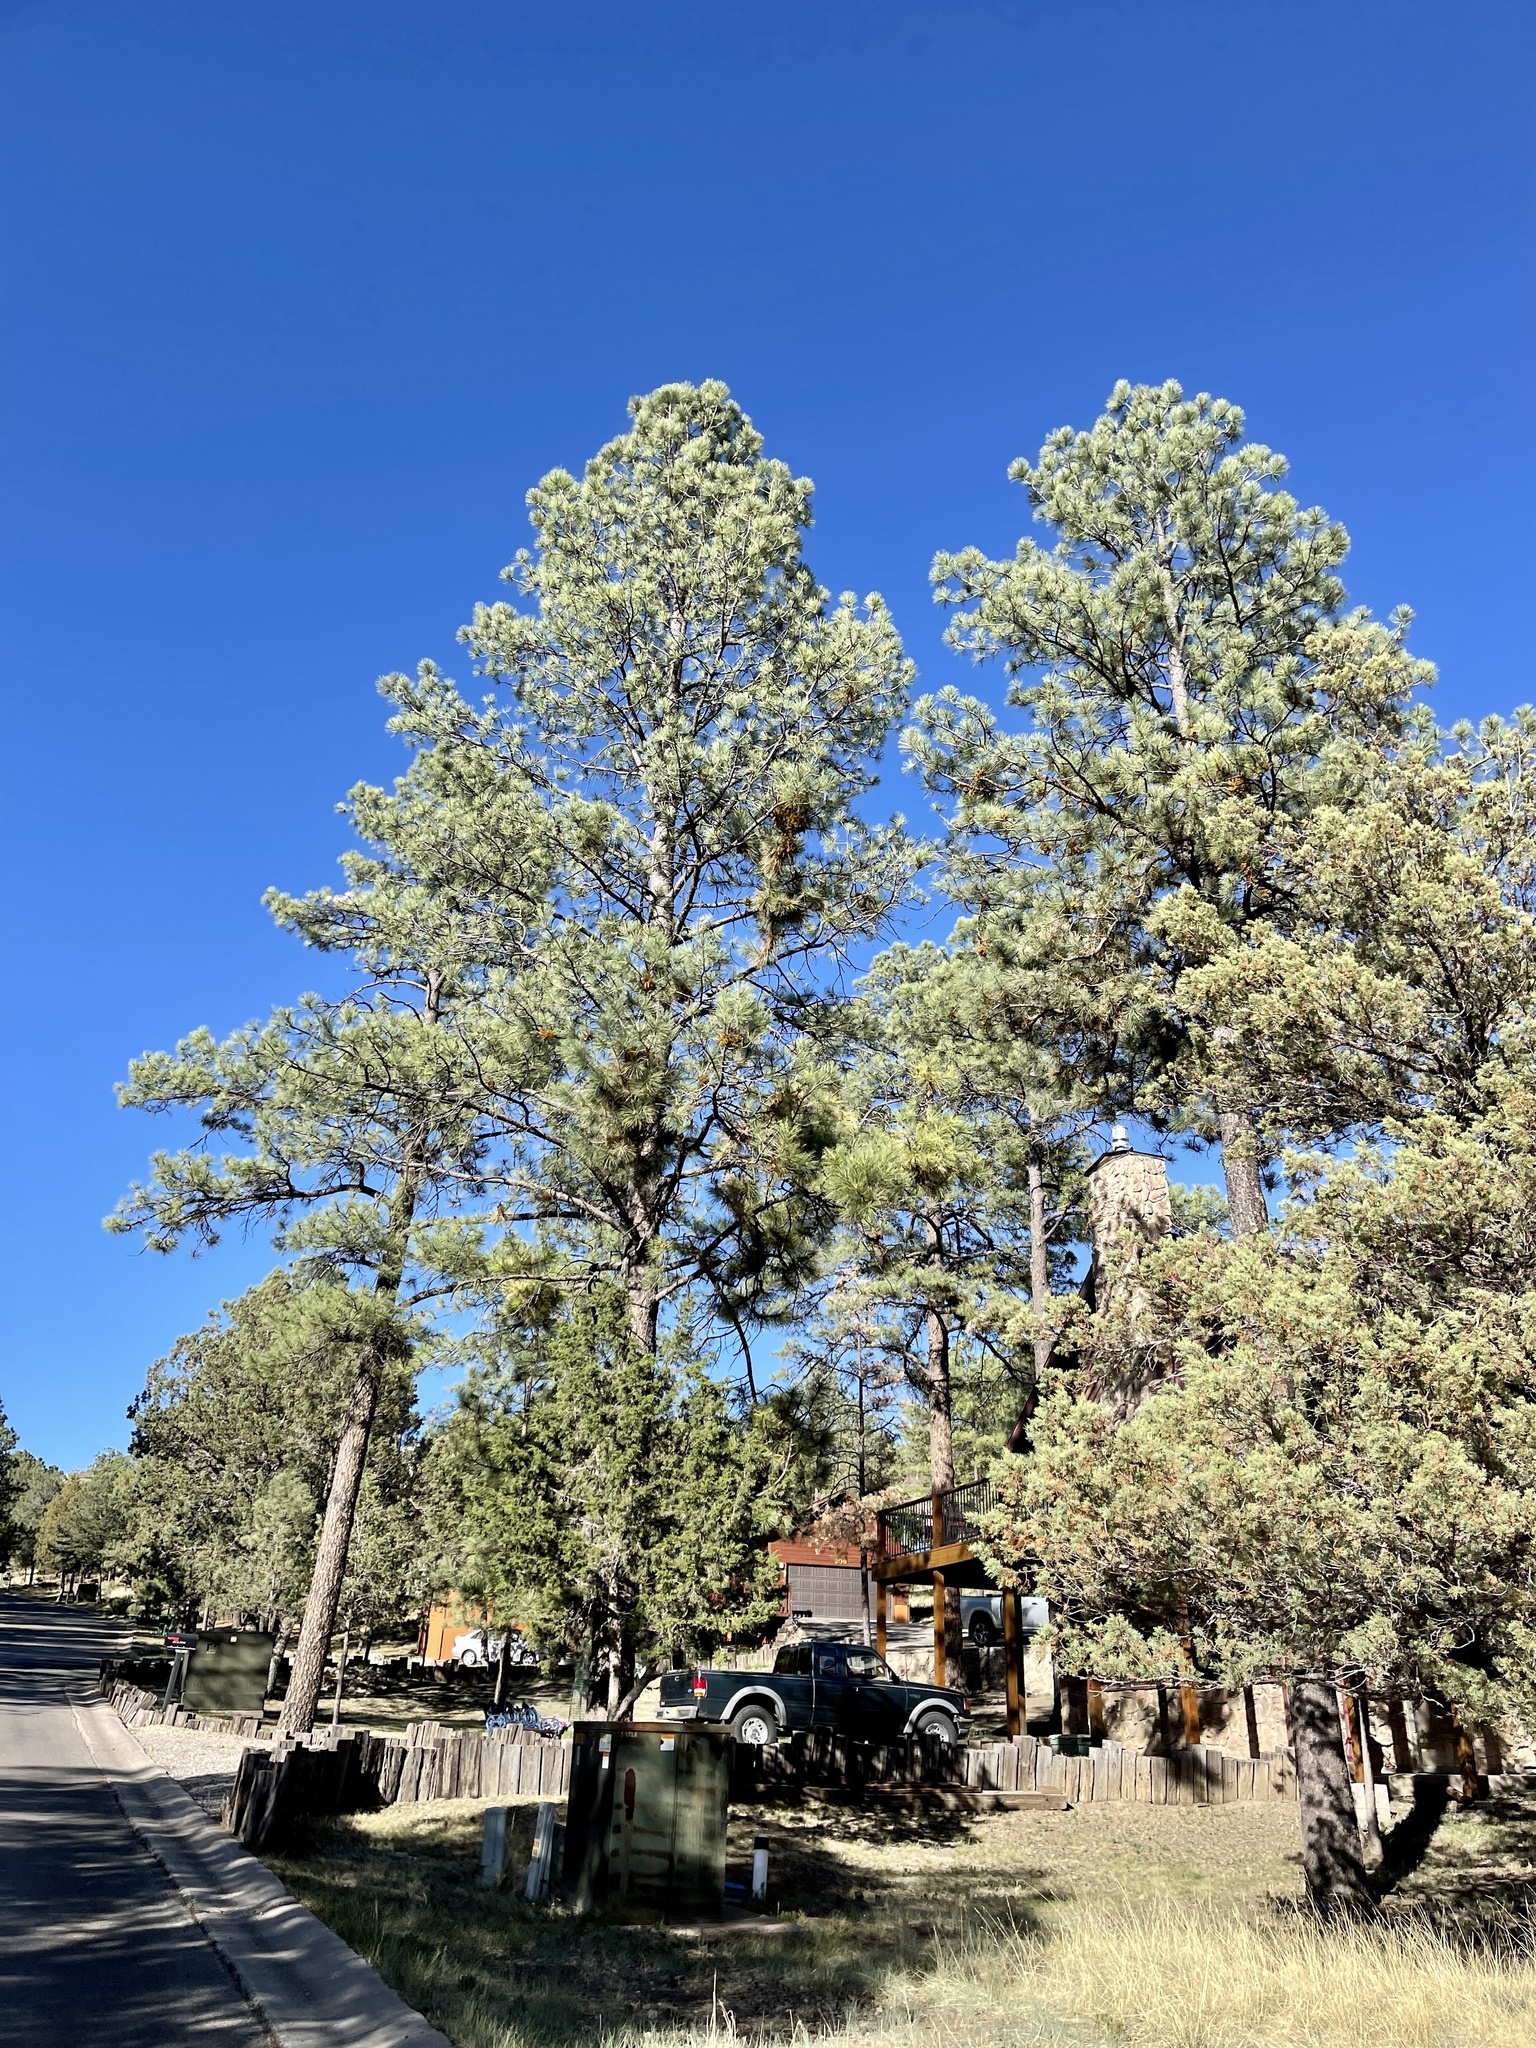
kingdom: Plantae
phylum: Tracheophyta
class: Pinopsida
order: Pinales
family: Pinaceae
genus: Pinus
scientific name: Pinus ponderosa
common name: Western yellow-pine
